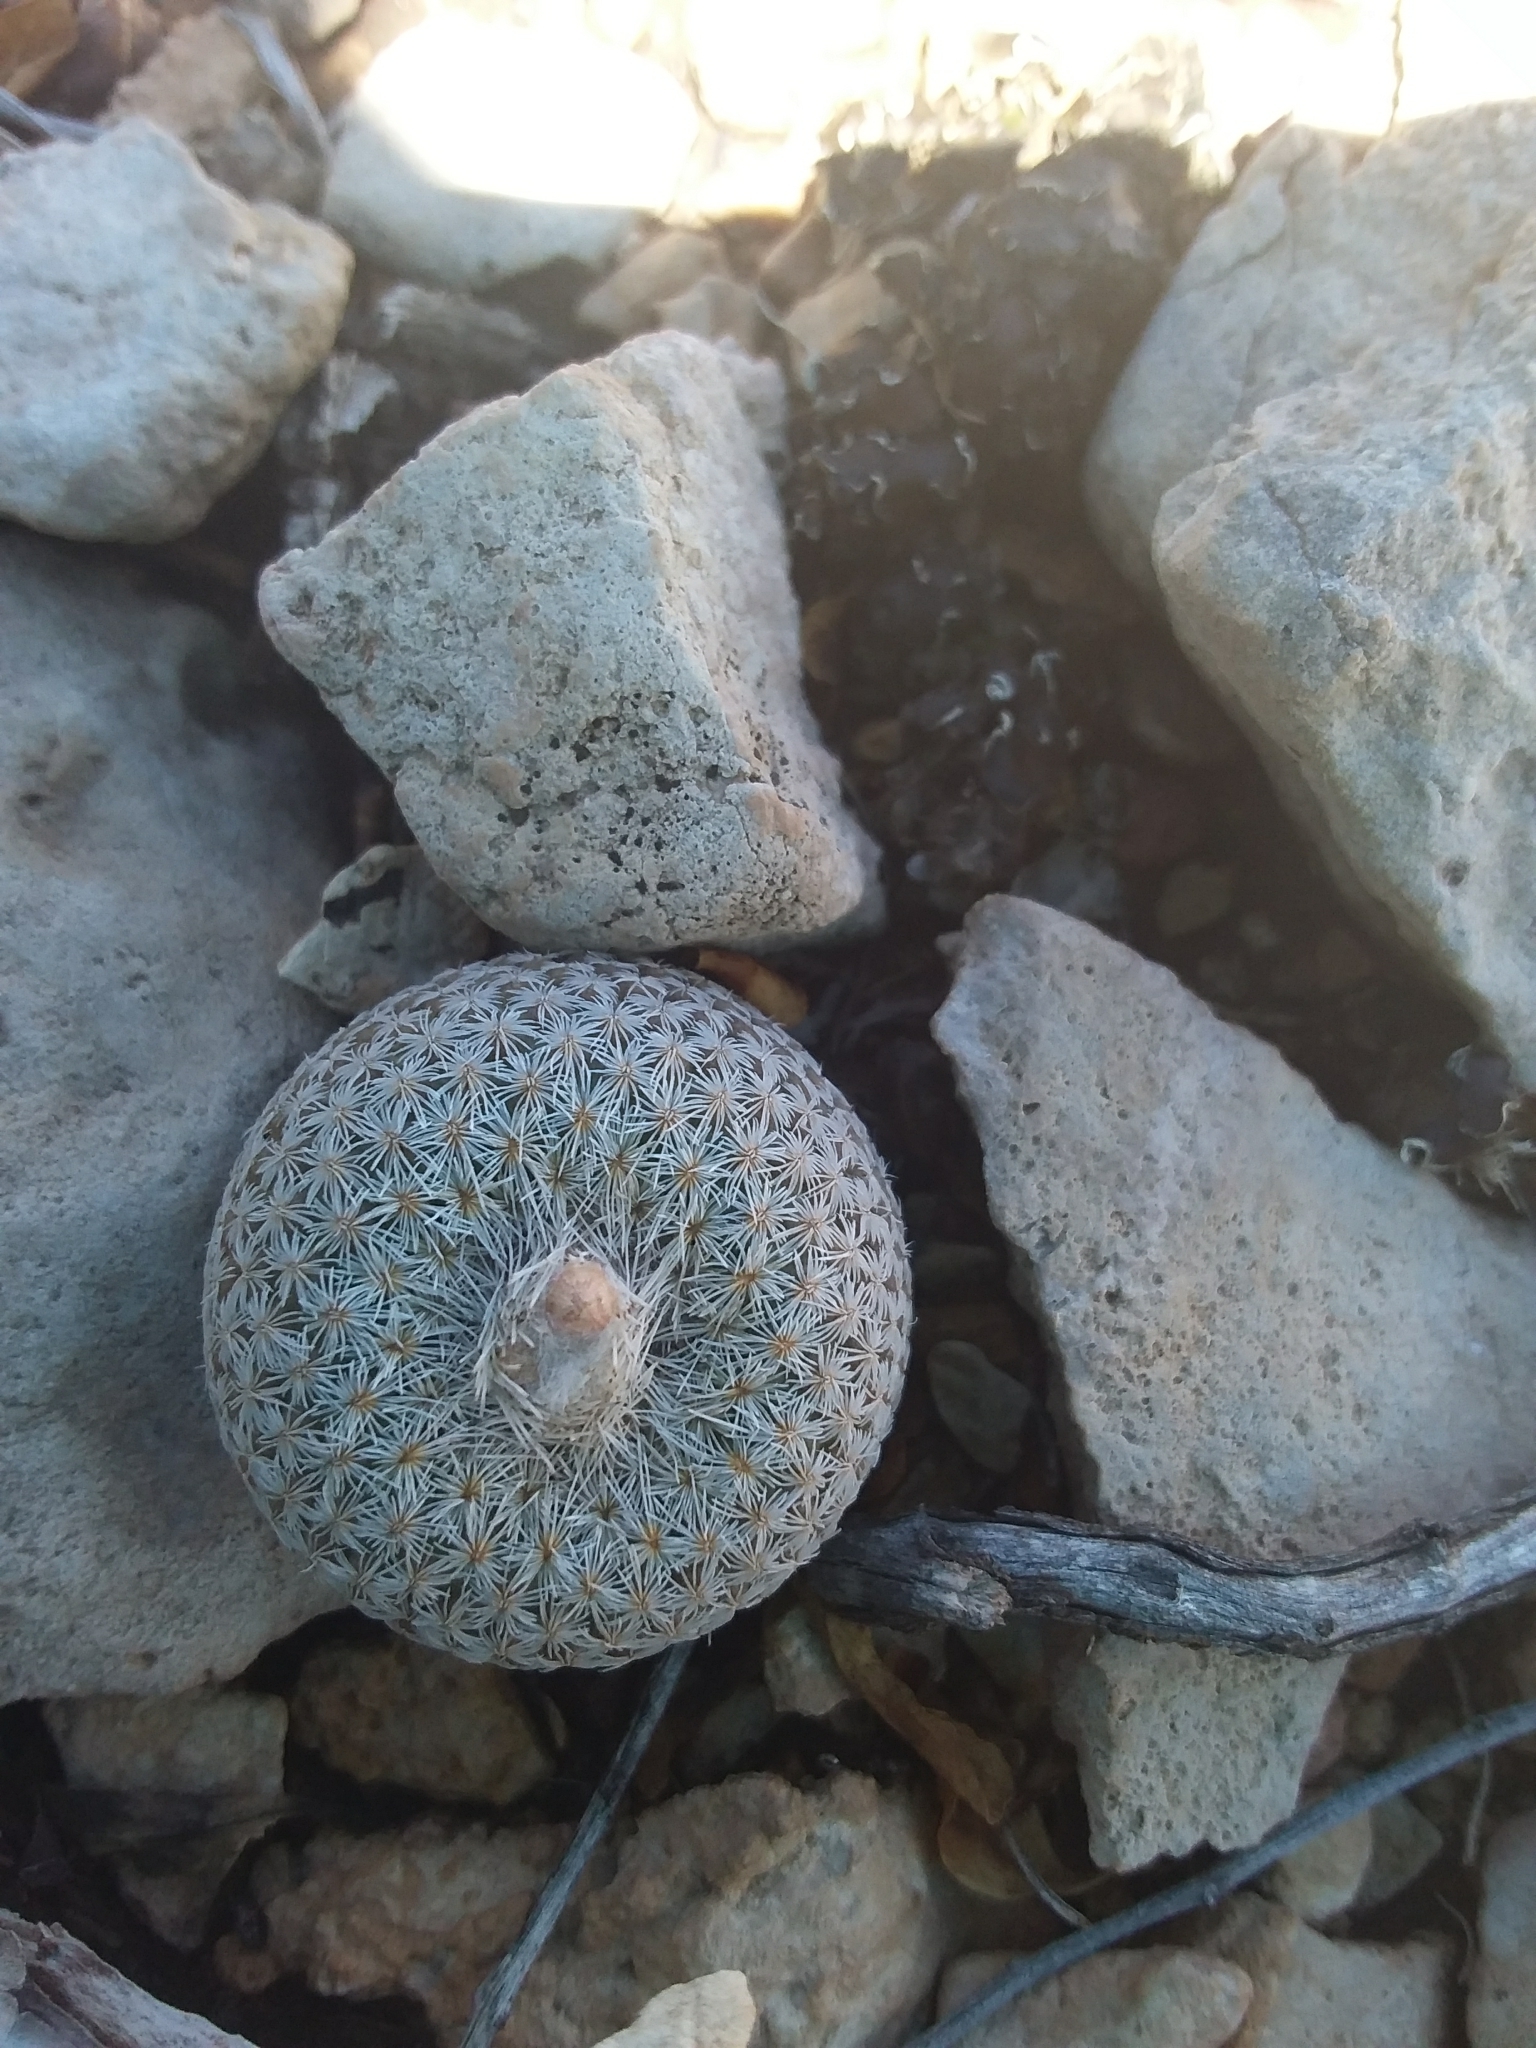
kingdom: Plantae
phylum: Tracheophyta
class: Magnoliopsida
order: Caryophyllales
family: Cactaceae
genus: Epithelantha
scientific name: Epithelantha micromeris
